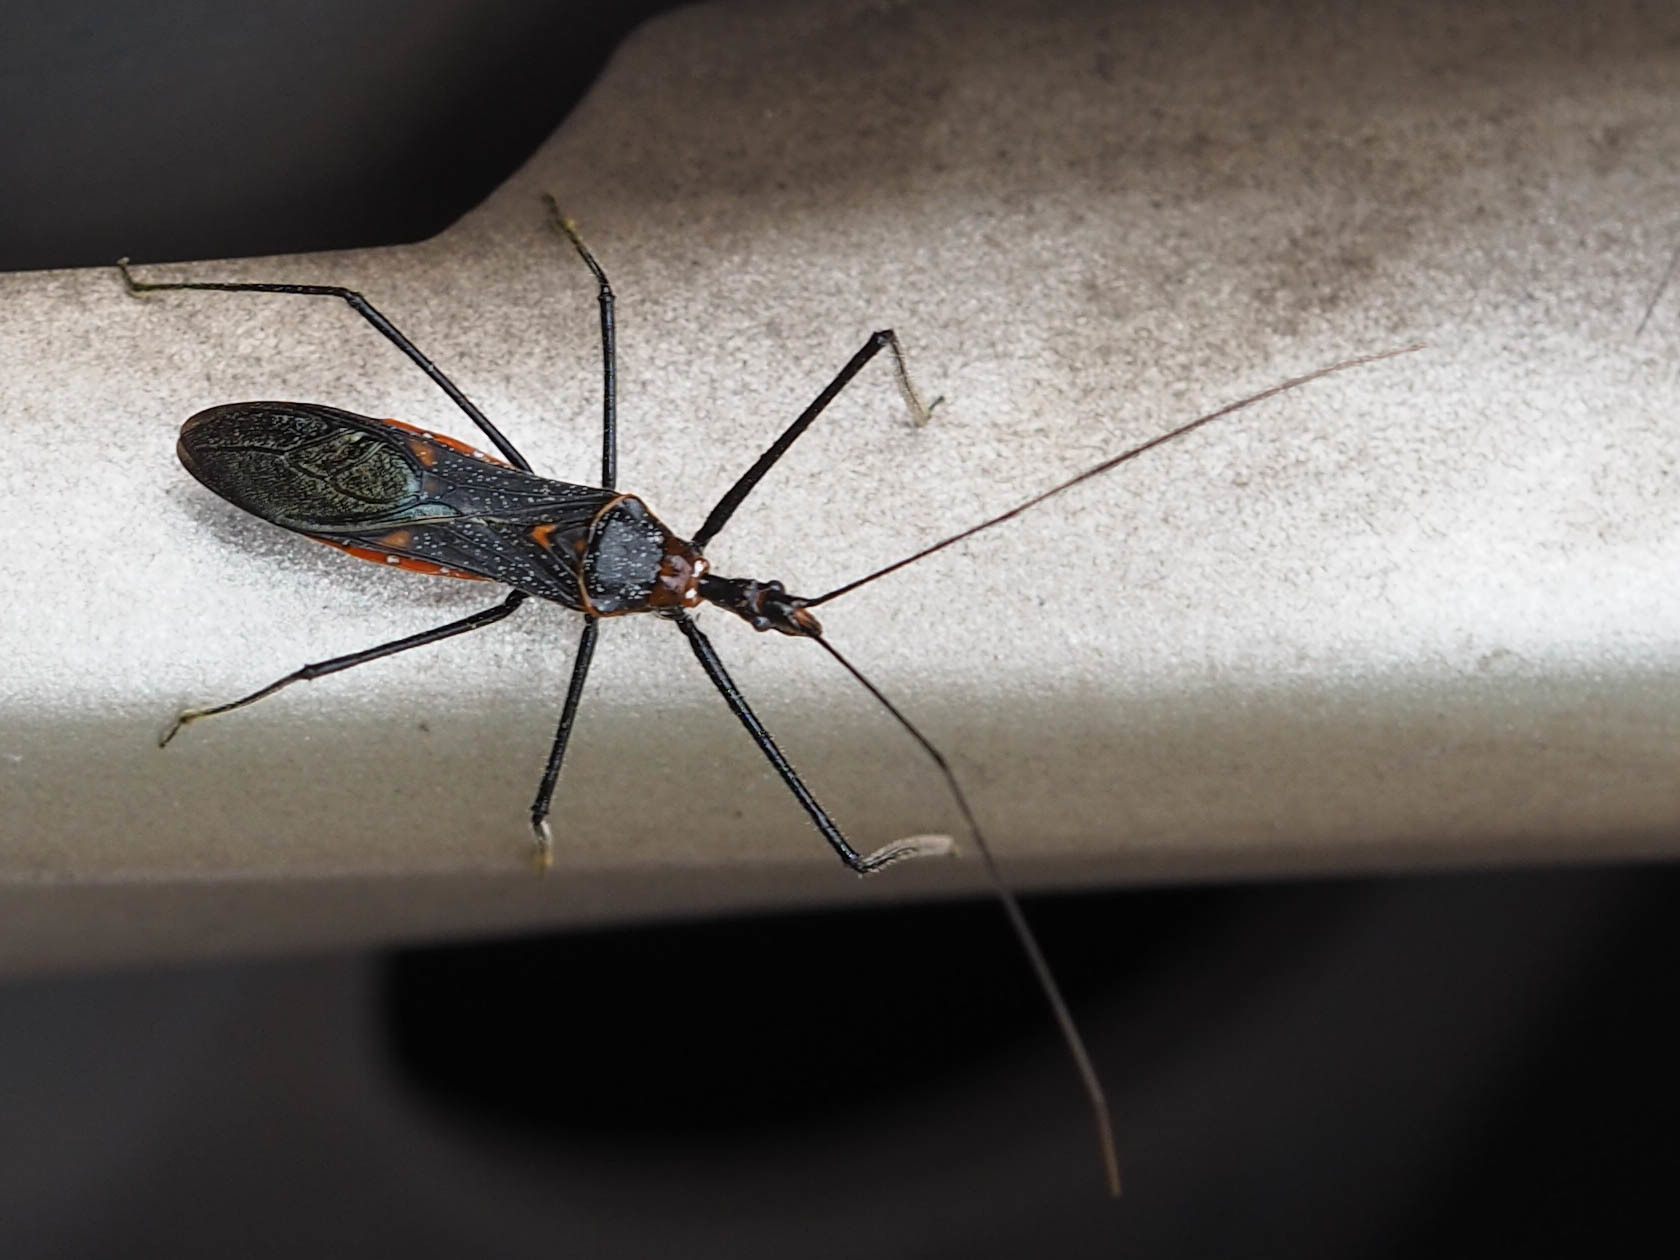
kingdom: Animalia
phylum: Arthropoda
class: Insecta
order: Hemiptera
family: Reduviidae
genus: Zelus
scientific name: Zelus longipes
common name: Milkweed assassin bug
